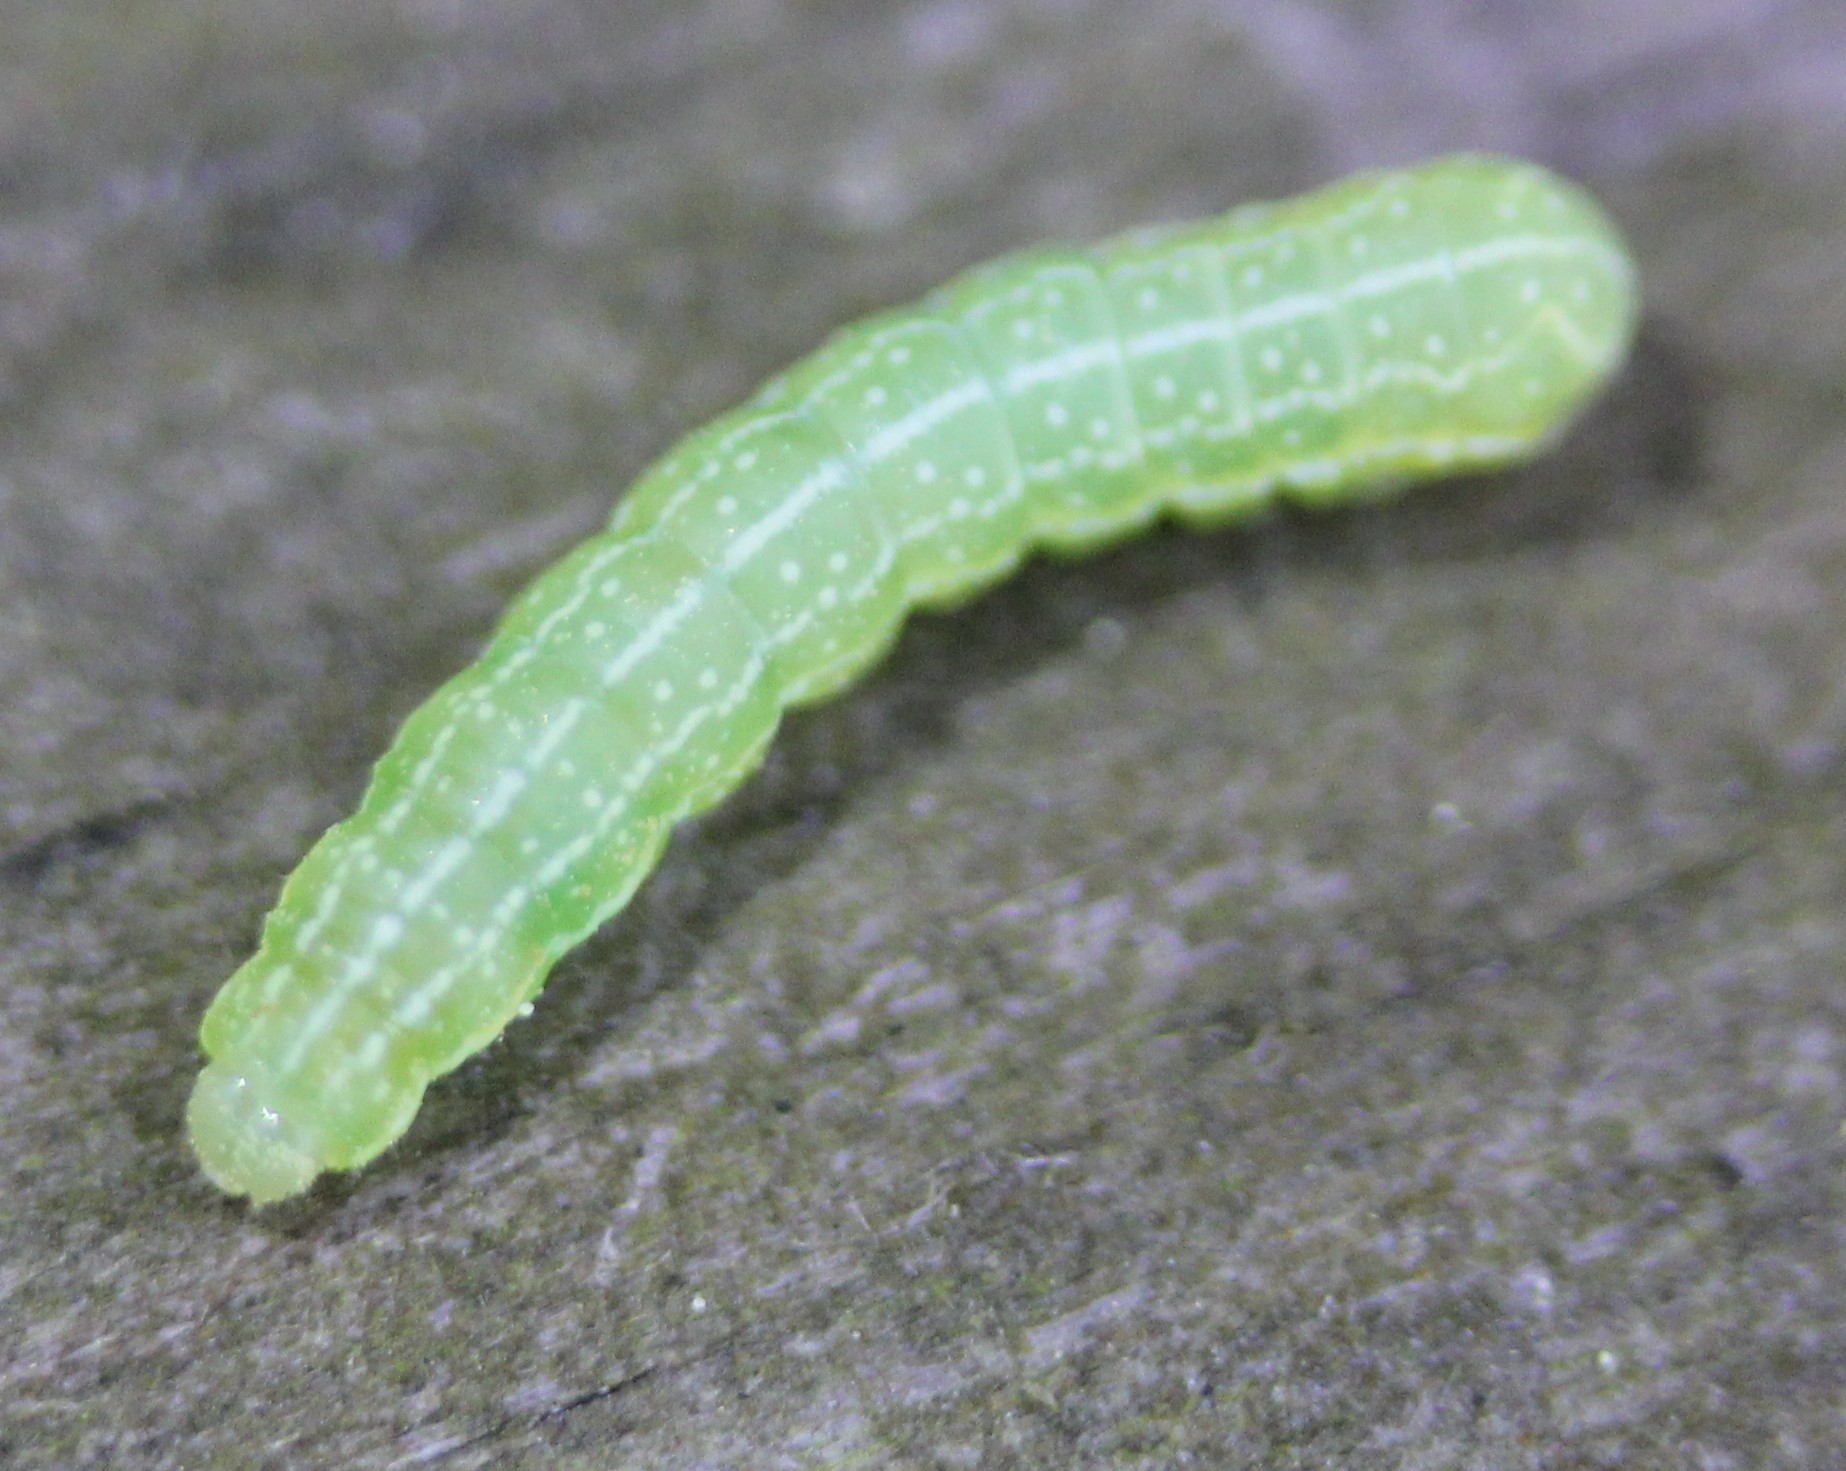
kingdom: Animalia
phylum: Arthropoda
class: Insecta
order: Lepidoptera
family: Noctuidae
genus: Amphipyra
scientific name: Amphipyra pyramidoides
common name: American copper underwing
